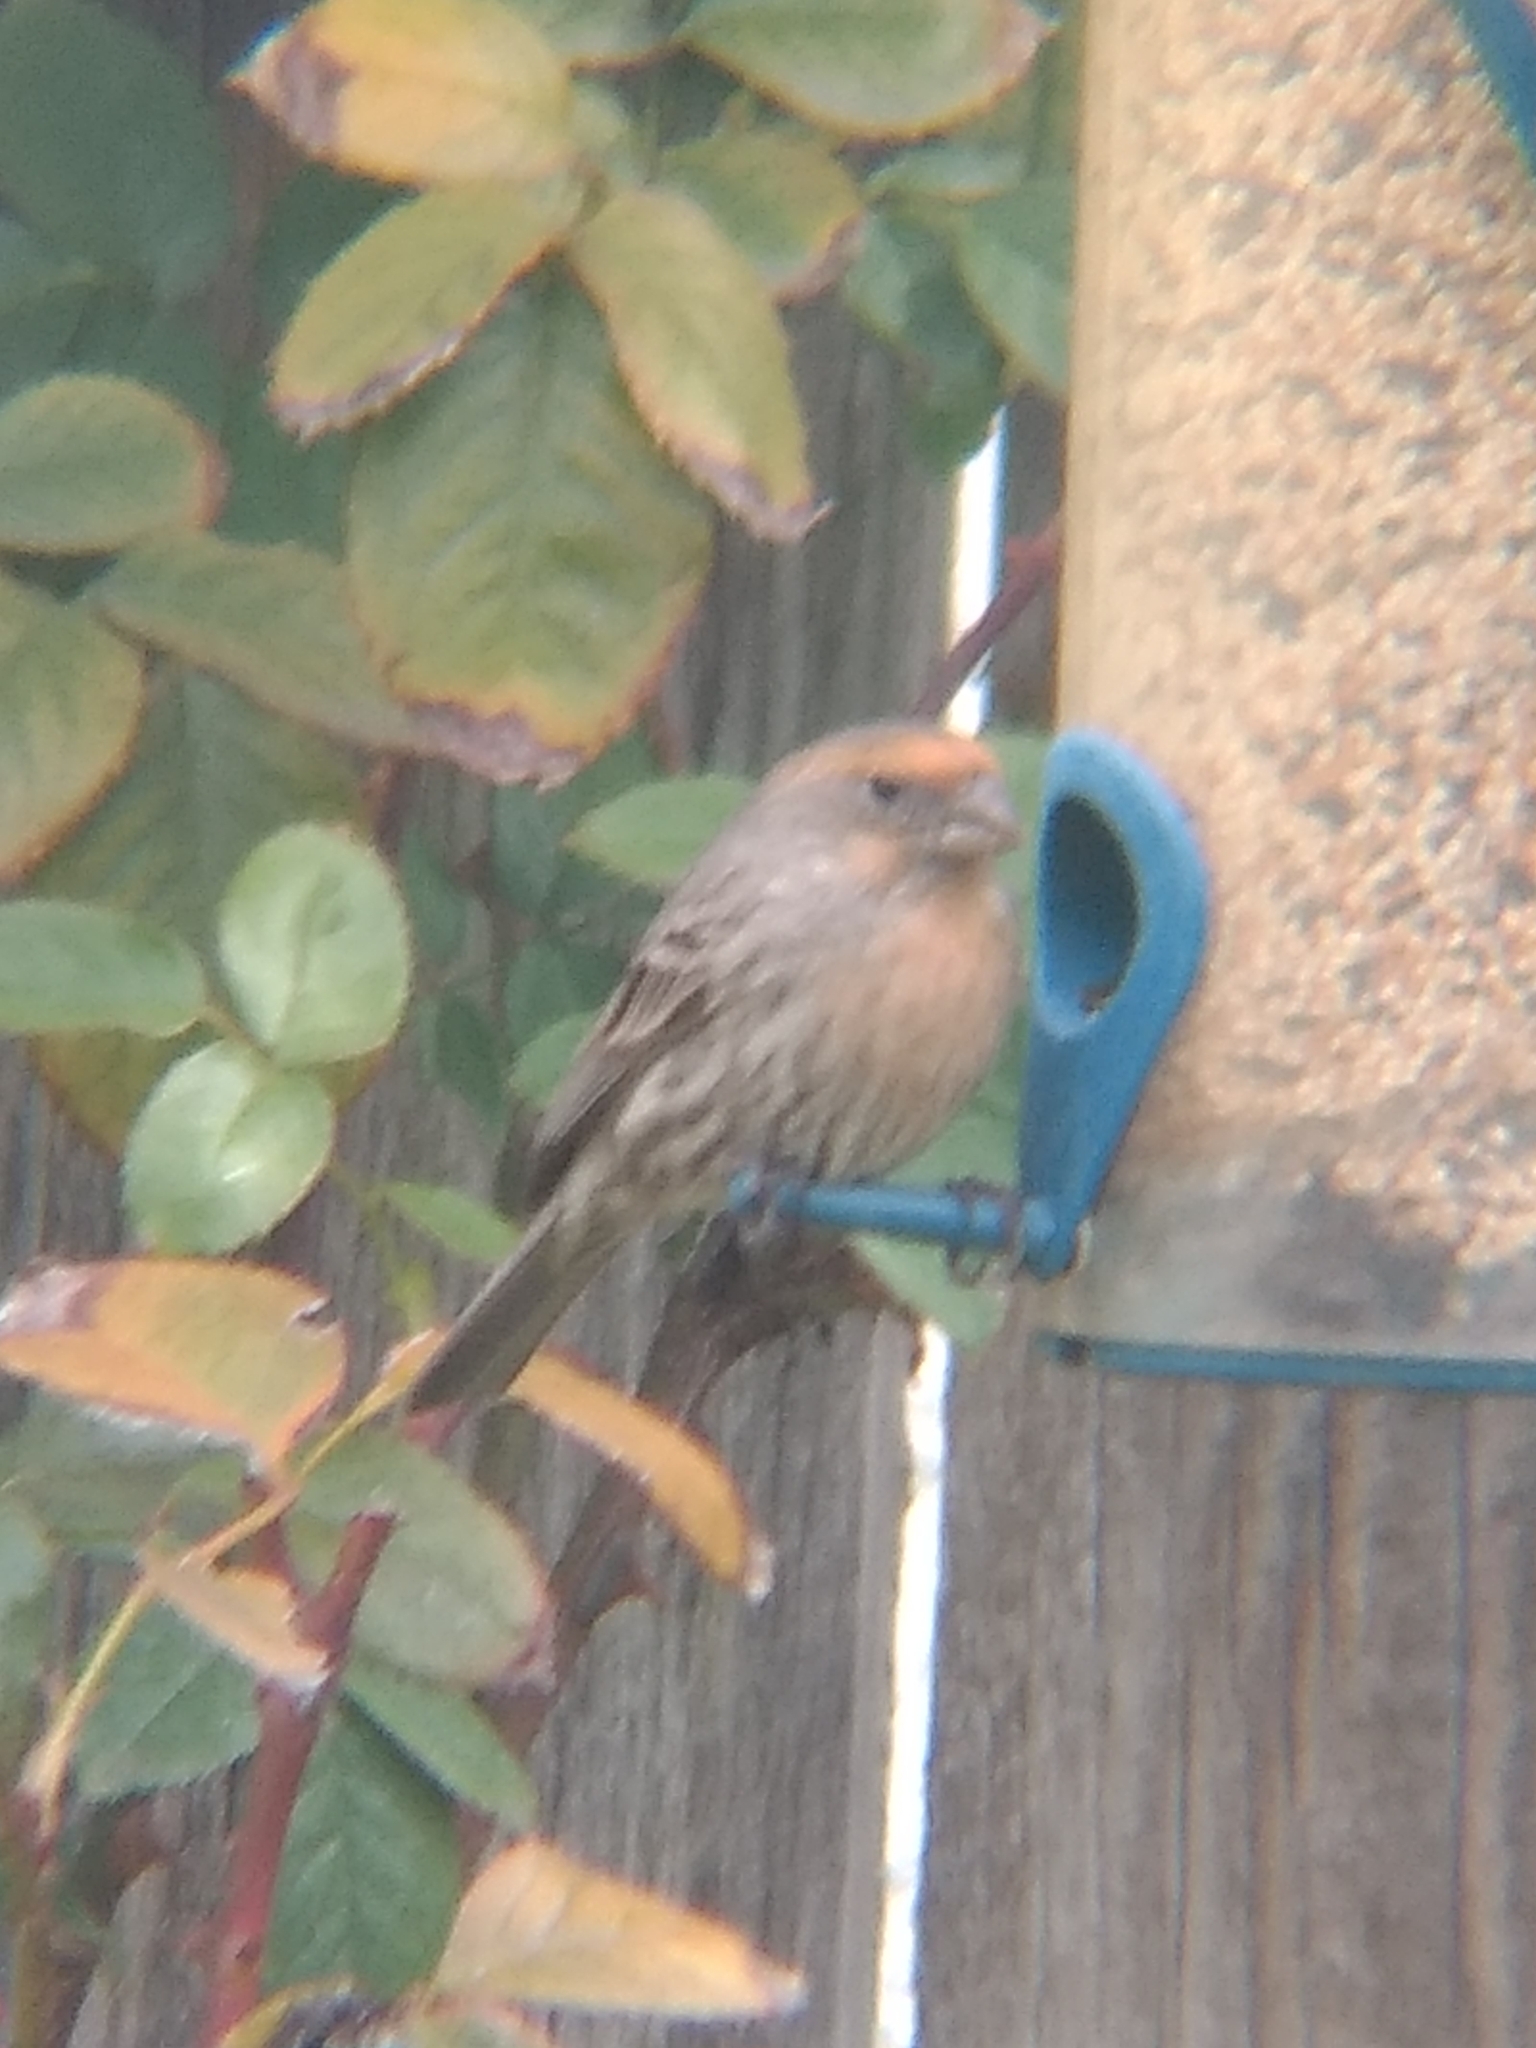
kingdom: Animalia
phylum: Chordata
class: Aves
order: Passeriformes
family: Fringillidae
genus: Haemorhous
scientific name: Haemorhous mexicanus
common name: House finch
